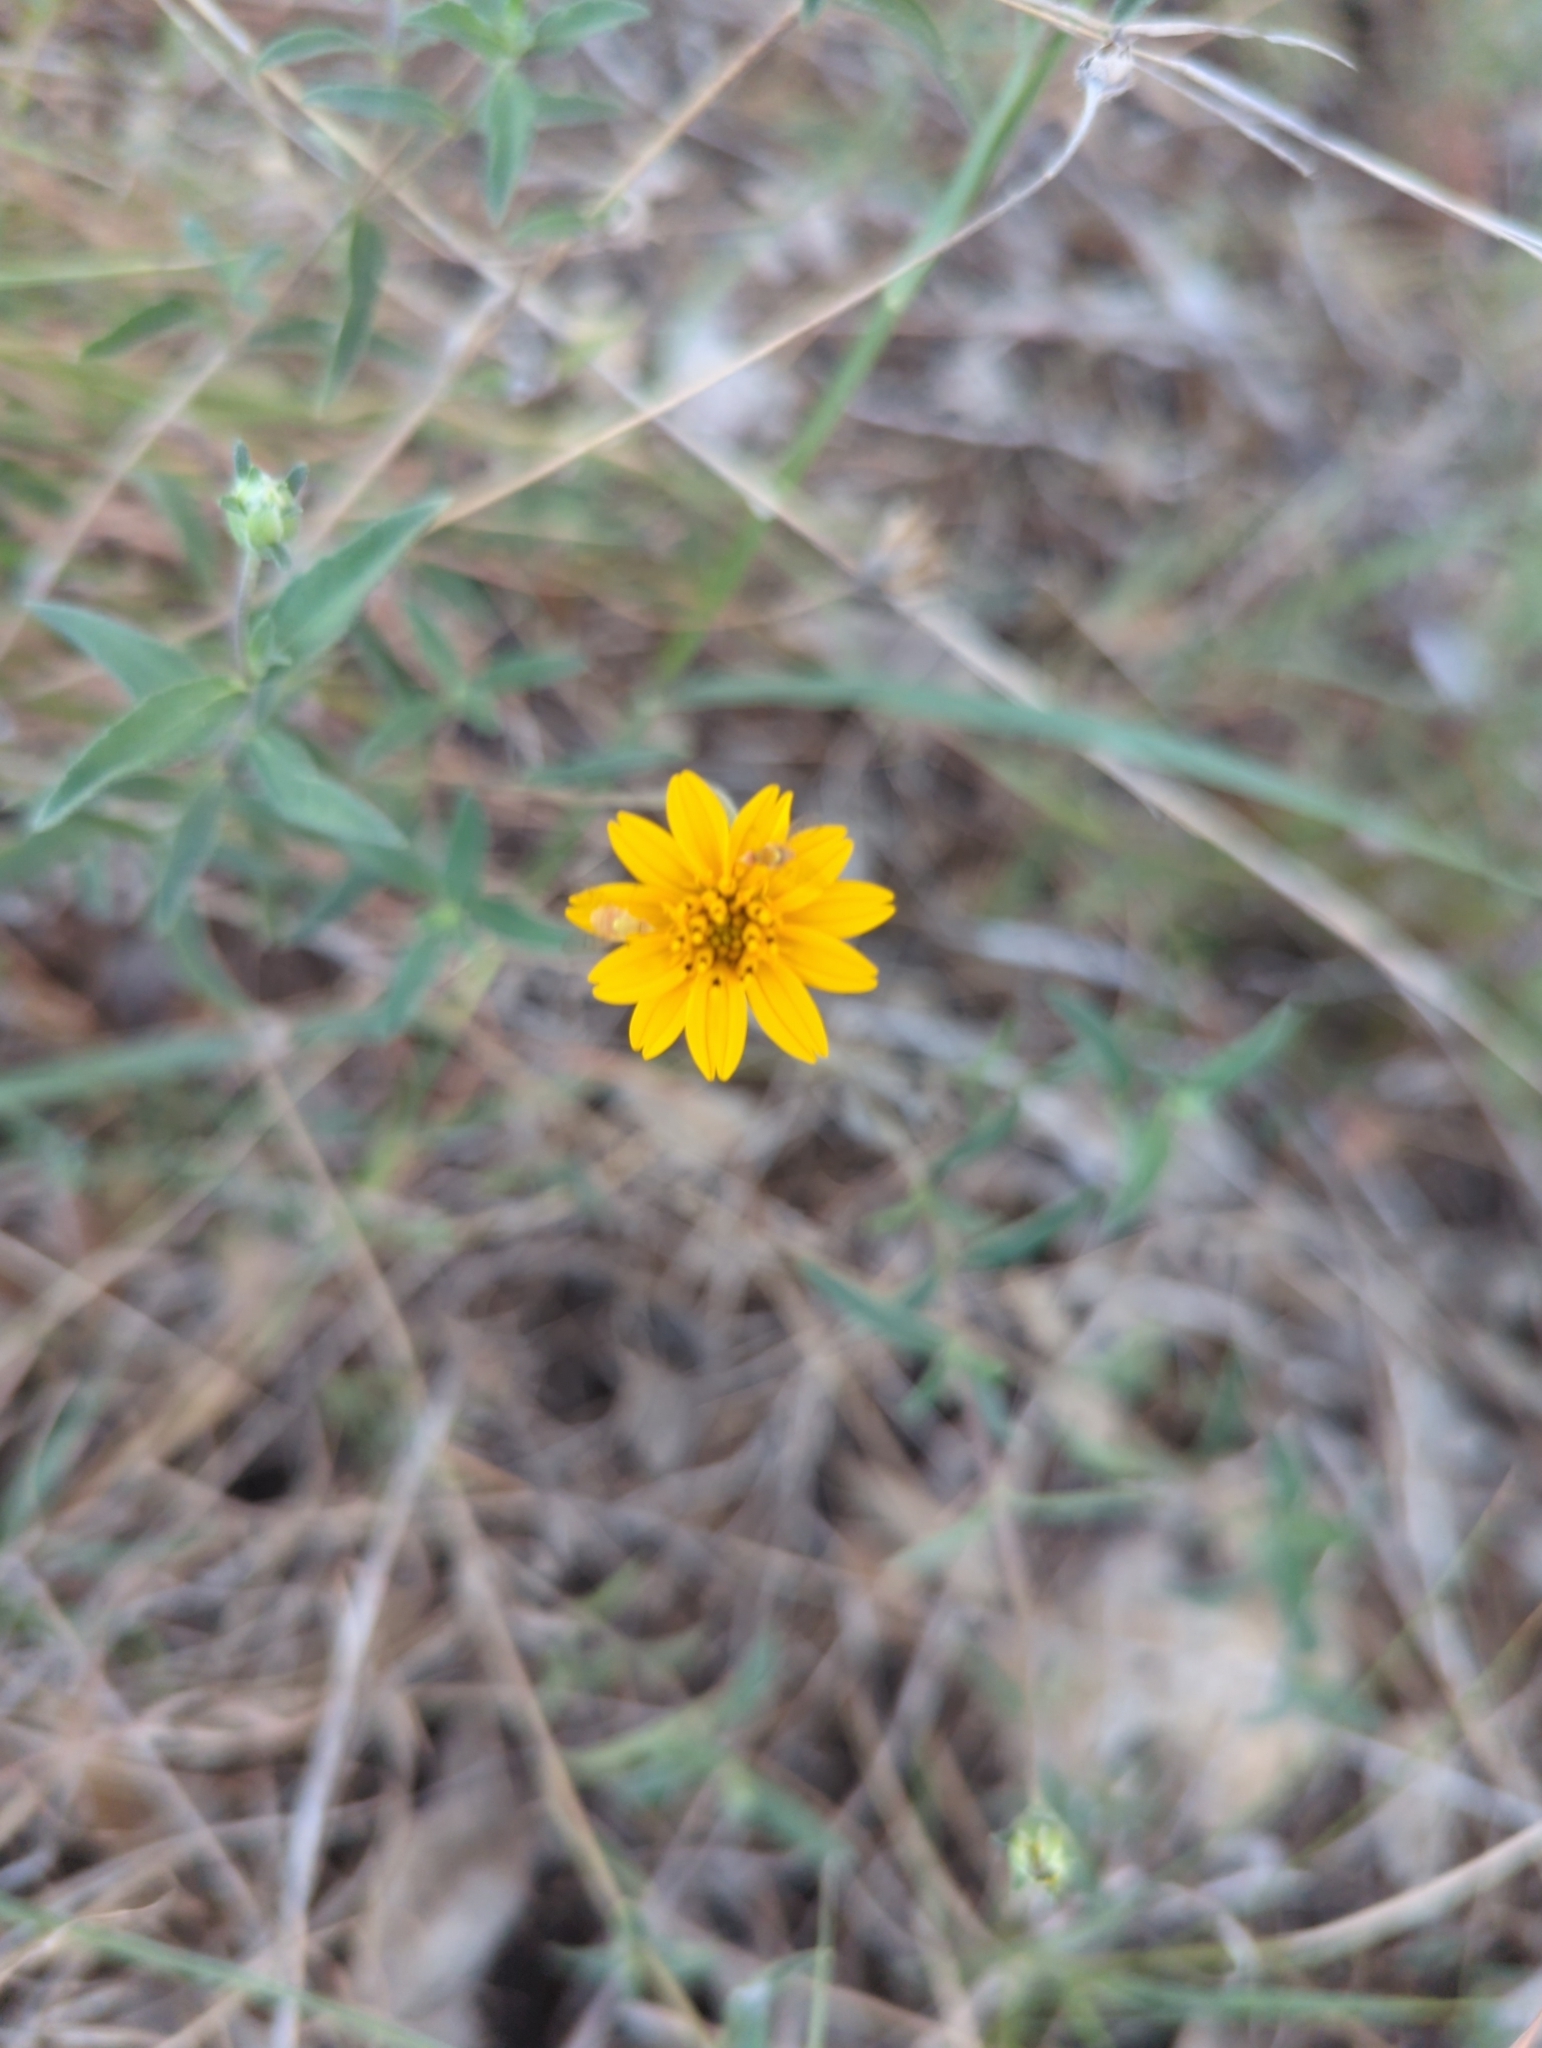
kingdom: Plantae
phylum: Tracheophyta
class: Magnoliopsida
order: Asterales
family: Asteraceae
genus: Wedelia
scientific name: Wedelia acapulcensis
